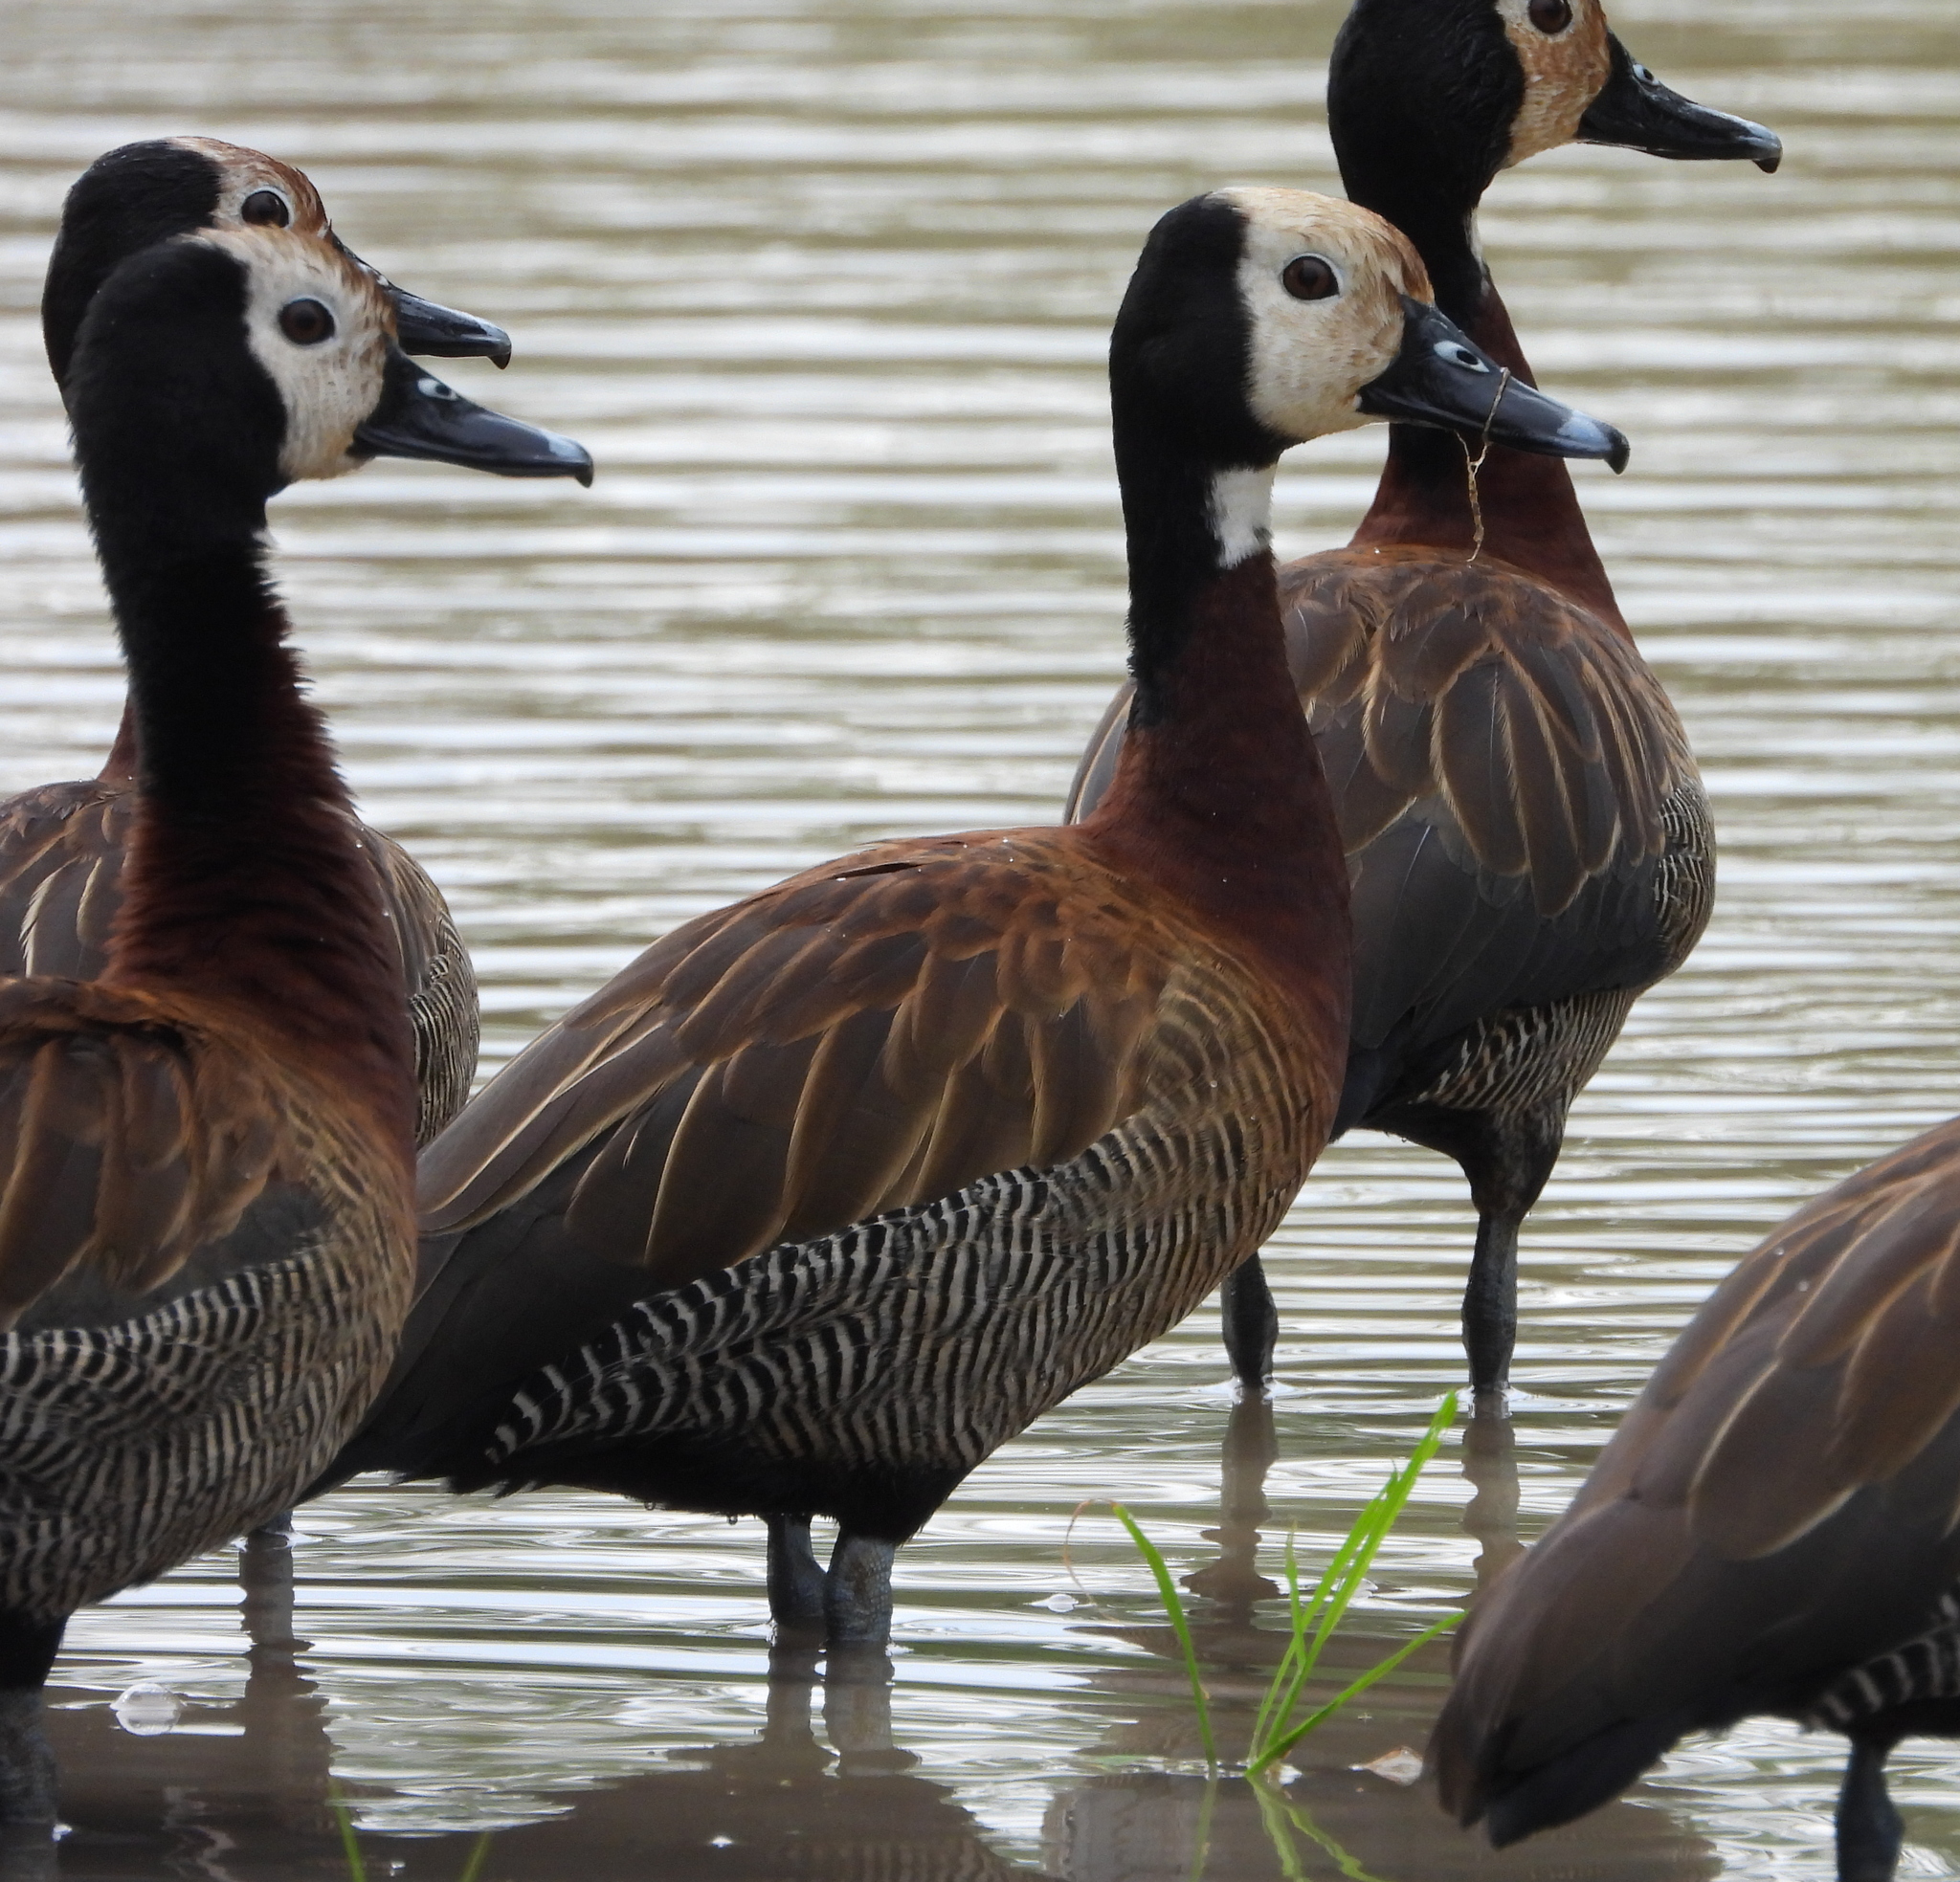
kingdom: Animalia
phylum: Chordata
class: Aves
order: Anseriformes
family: Anatidae
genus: Dendrocygna
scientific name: Dendrocygna viduata
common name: White-faced whistling duck
